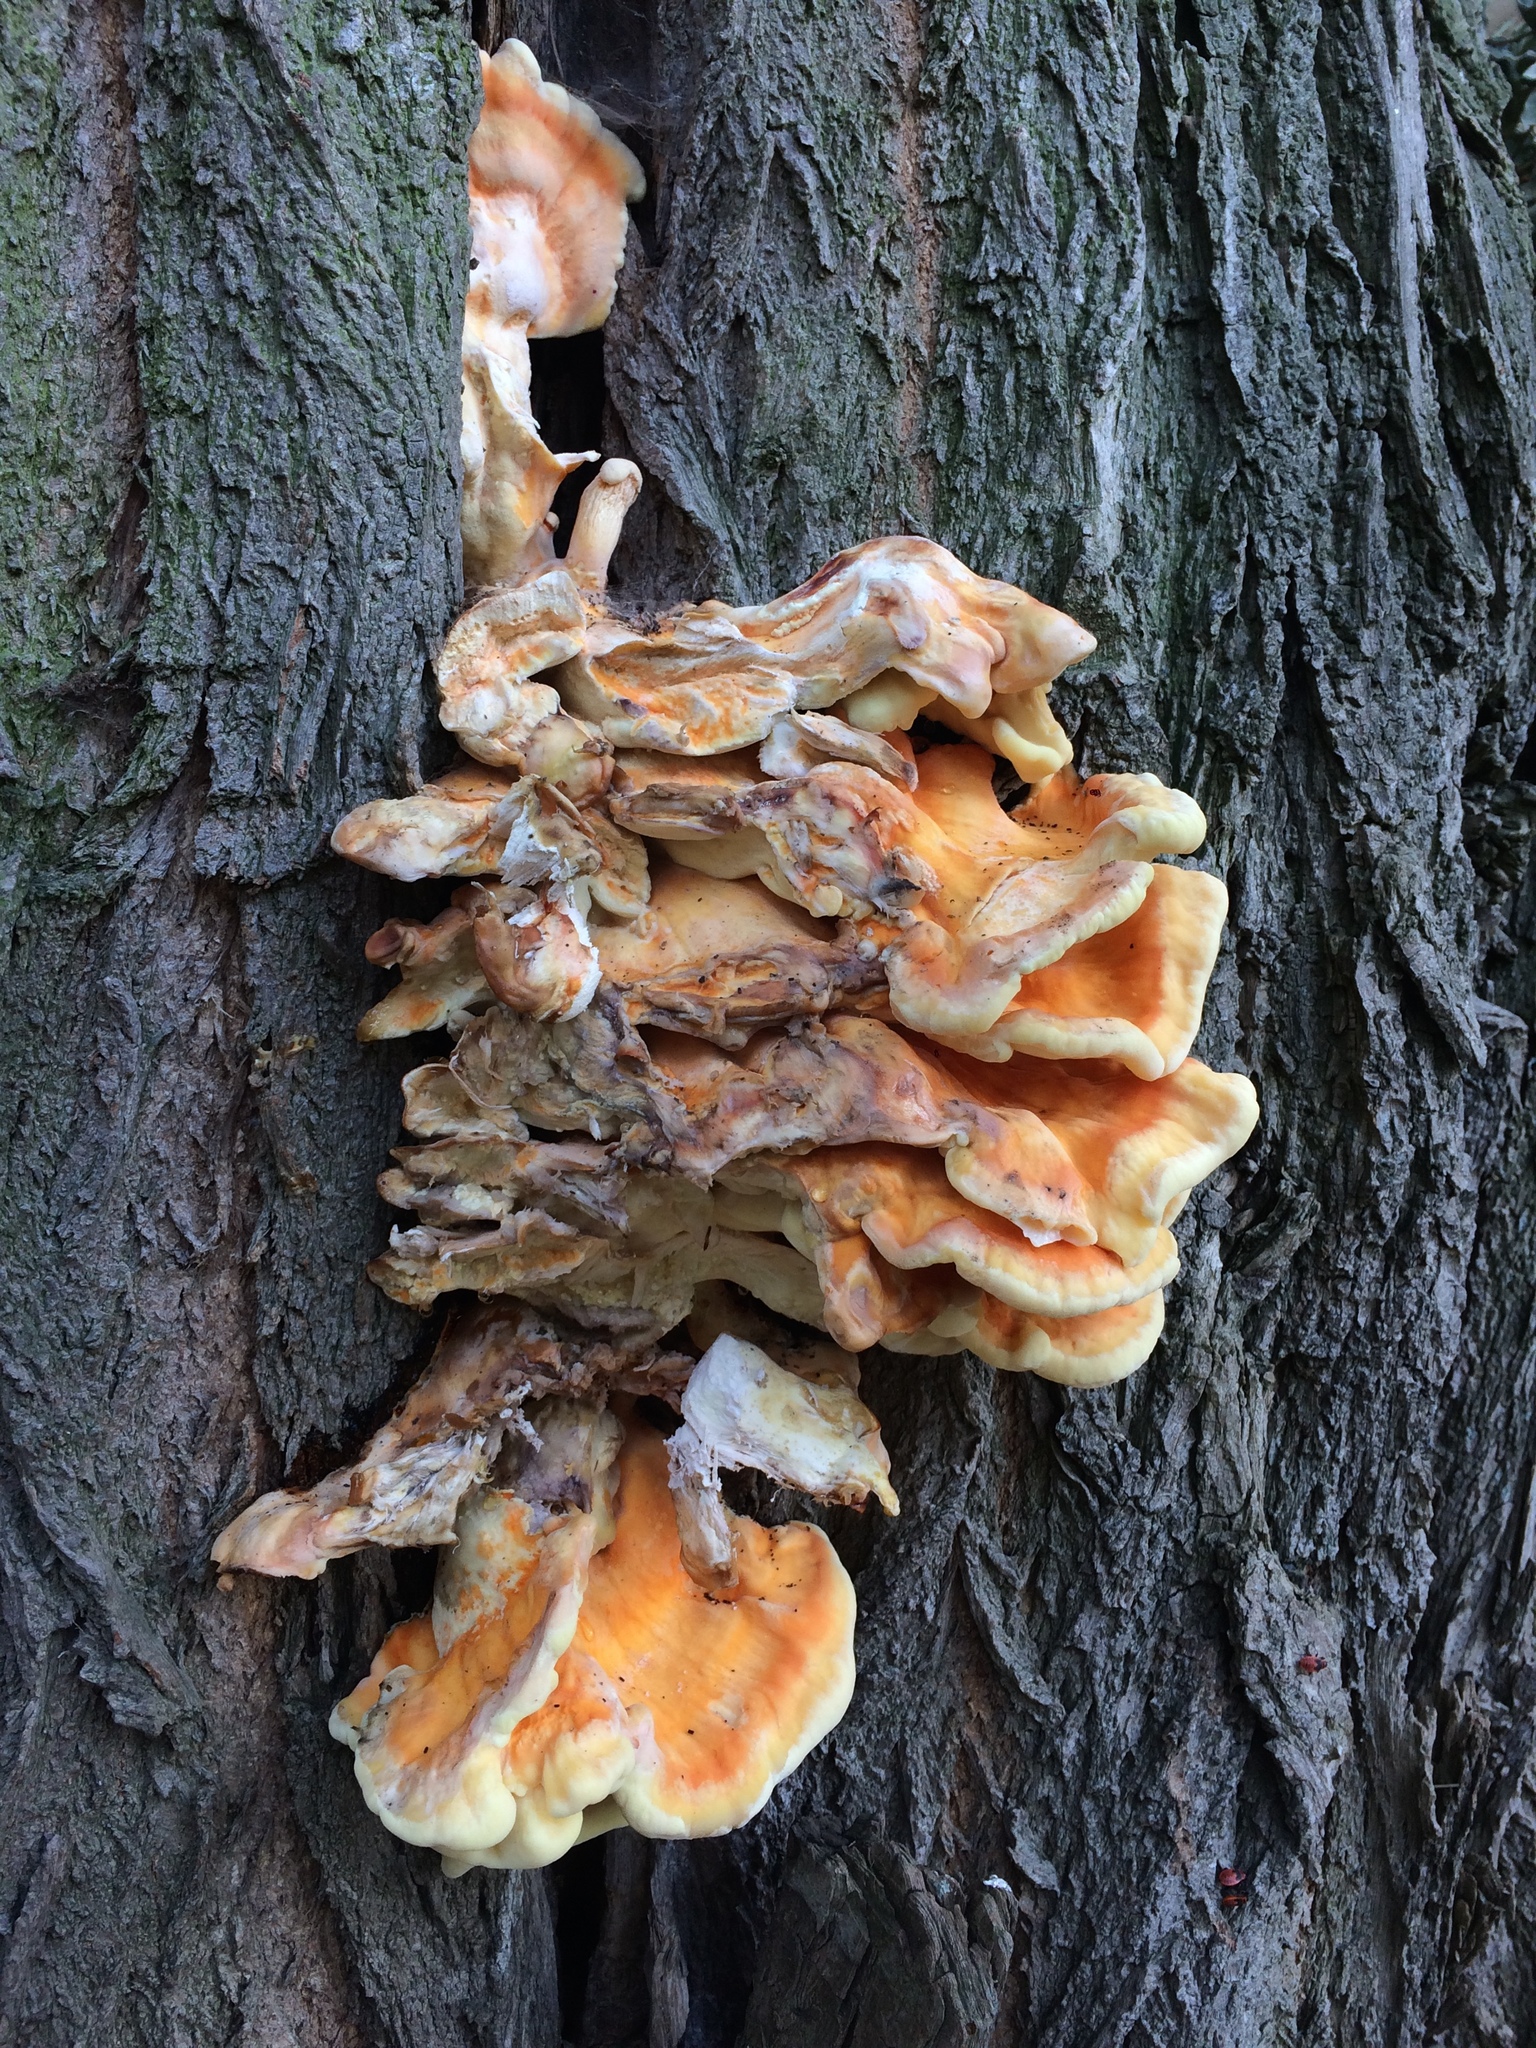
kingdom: Fungi
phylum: Basidiomycota
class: Agaricomycetes
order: Polyporales
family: Laetiporaceae
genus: Laetiporus
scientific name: Laetiporus sulphureus
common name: Chicken of the woods
